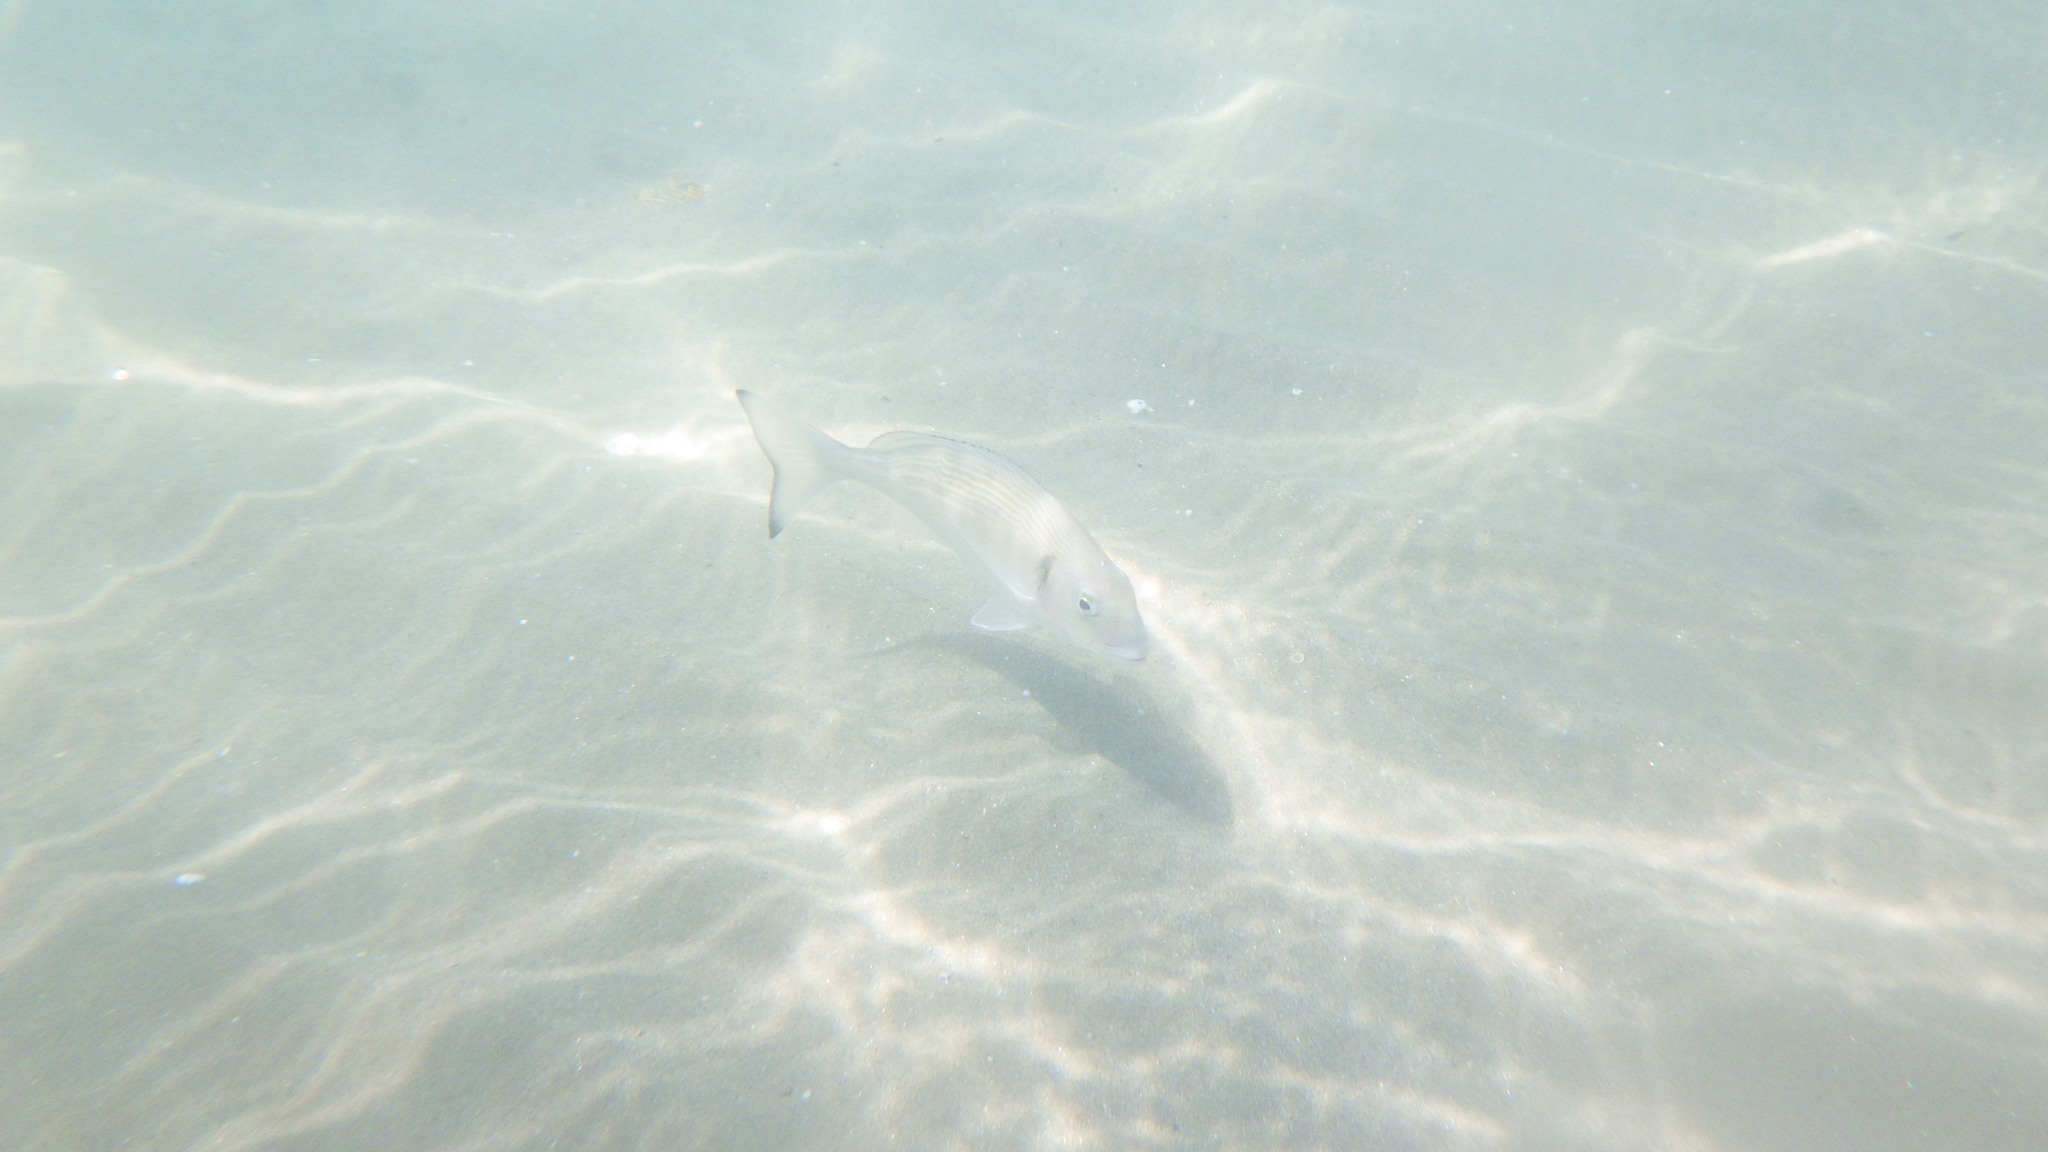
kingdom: Animalia
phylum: Chordata
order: Perciformes
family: Sparidae
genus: Sparus
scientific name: Sparus aurata
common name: Gilthead
